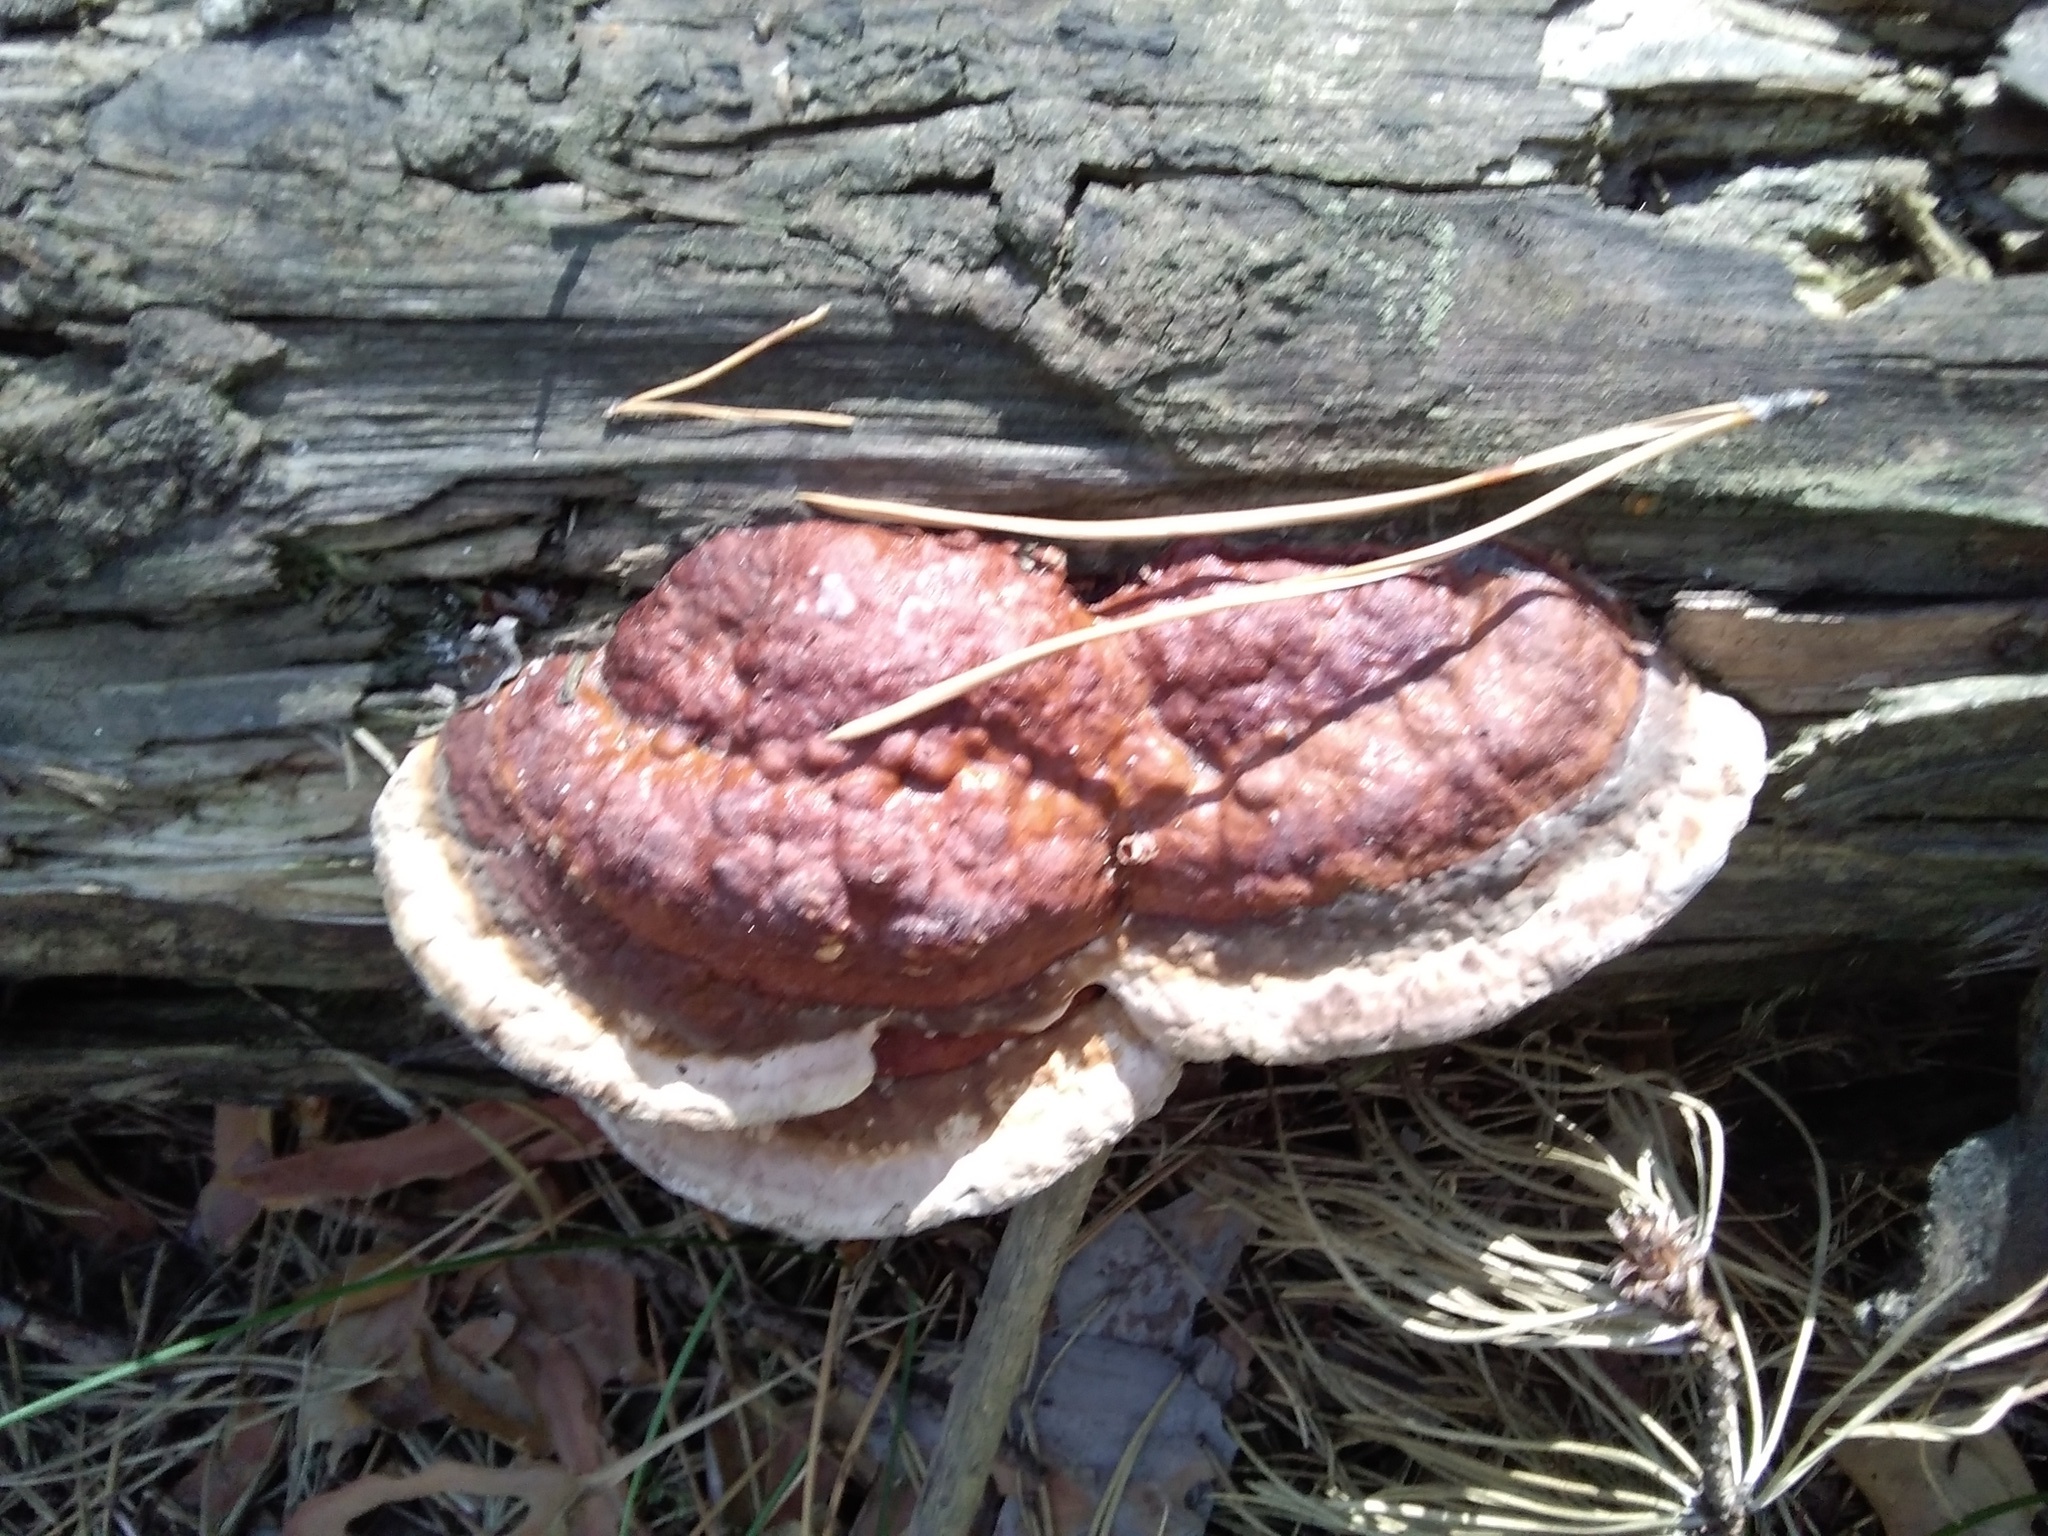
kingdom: Fungi
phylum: Basidiomycota
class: Agaricomycetes
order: Polyporales
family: Fomitopsidaceae
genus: Fomitopsis
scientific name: Fomitopsis pinicola
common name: Red-belted bracket
